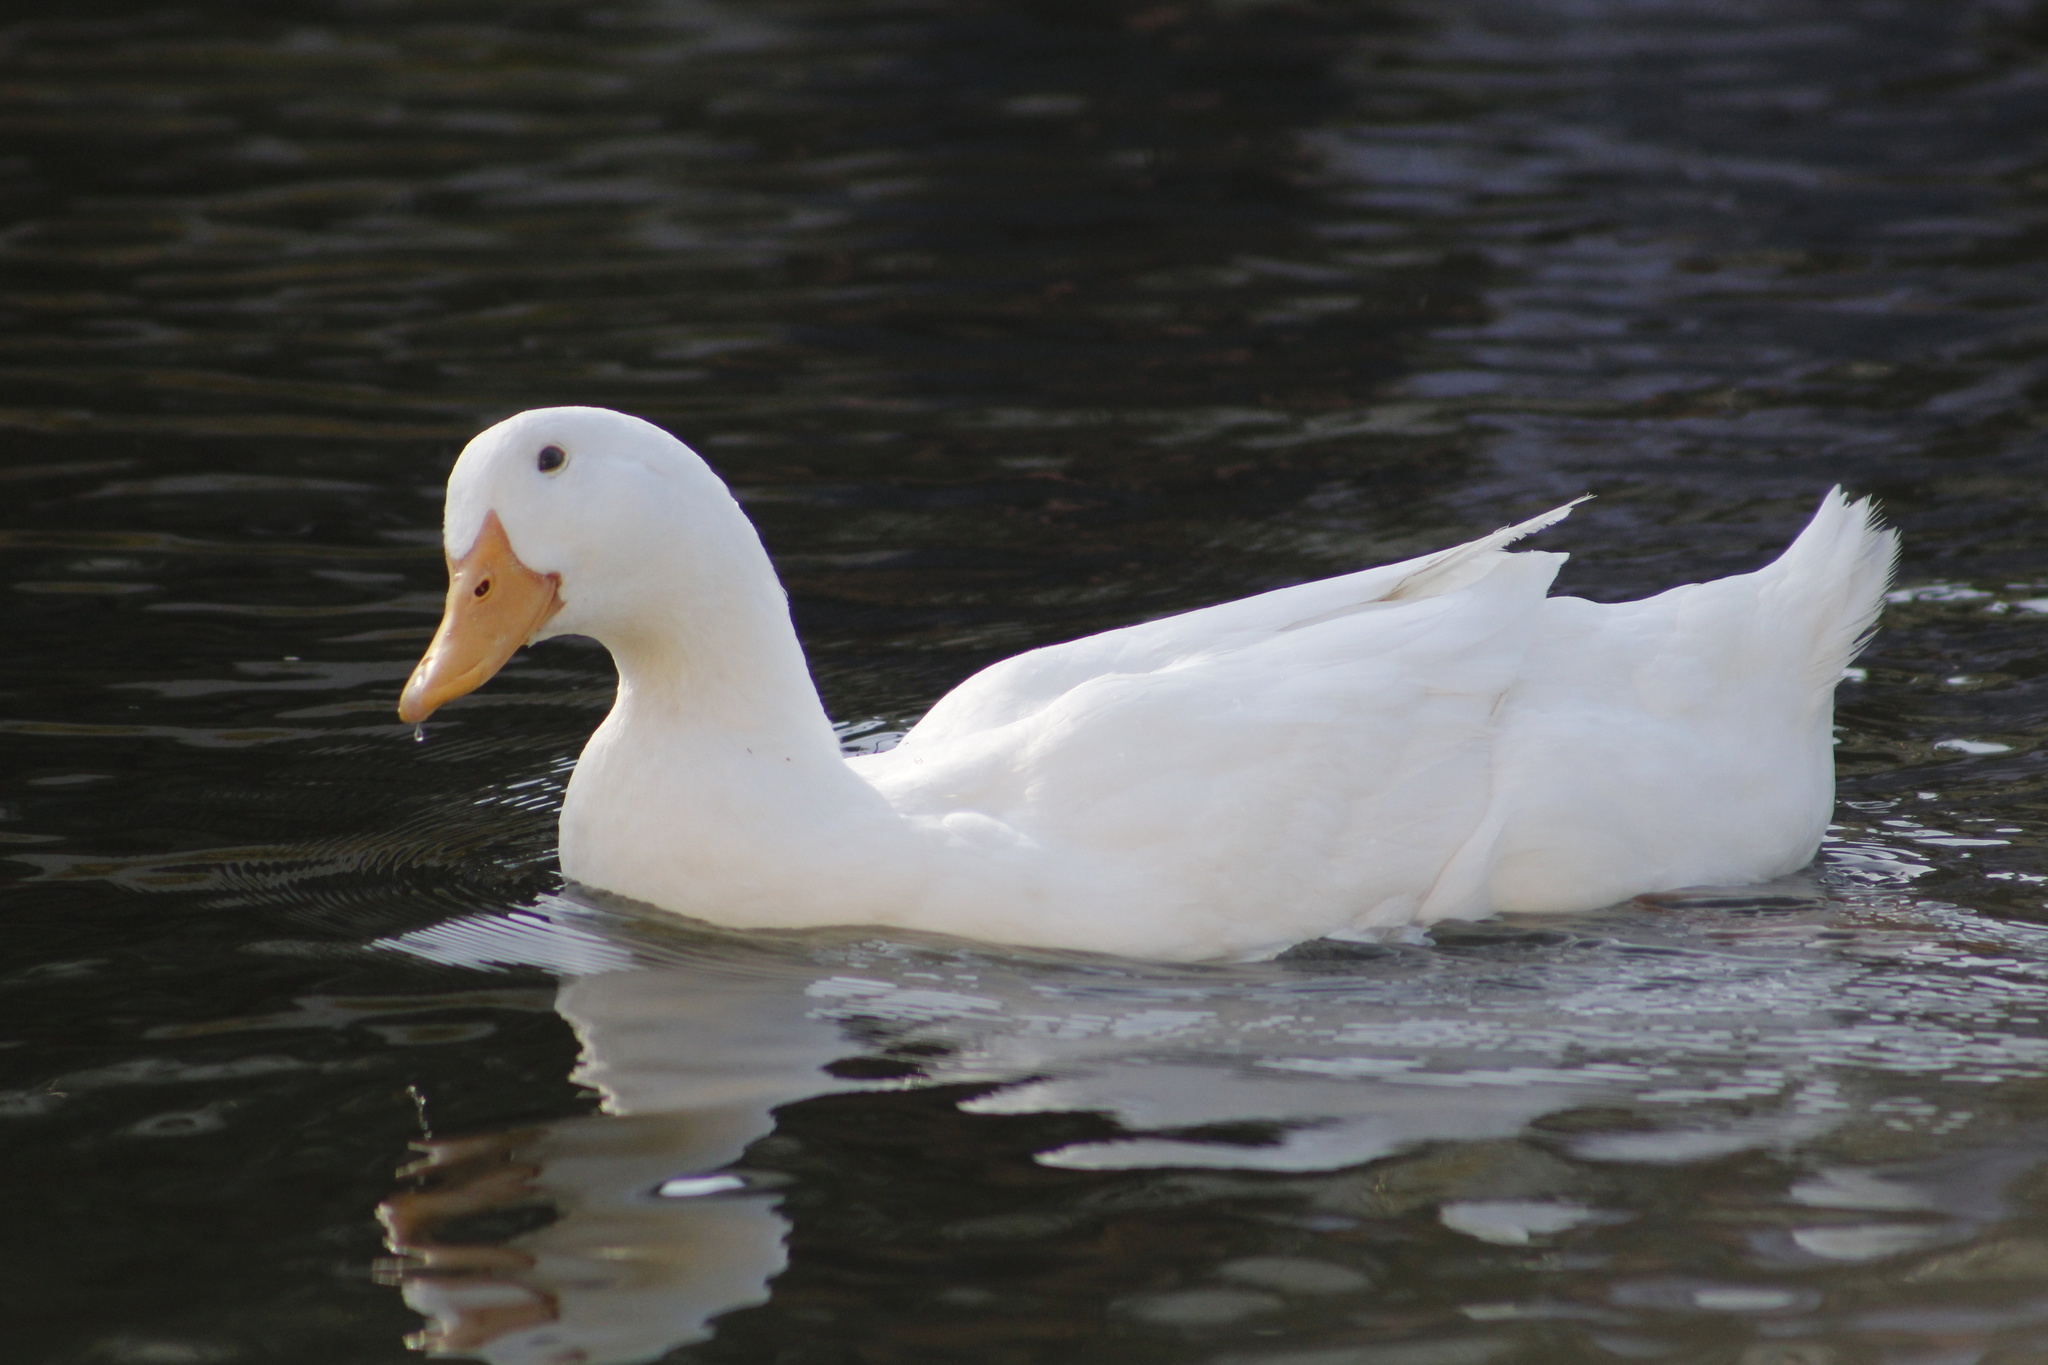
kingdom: Animalia
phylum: Chordata
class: Aves
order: Anseriformes
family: Anatidae
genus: Anas
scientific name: Anas platyrhynchos
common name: Mallard
